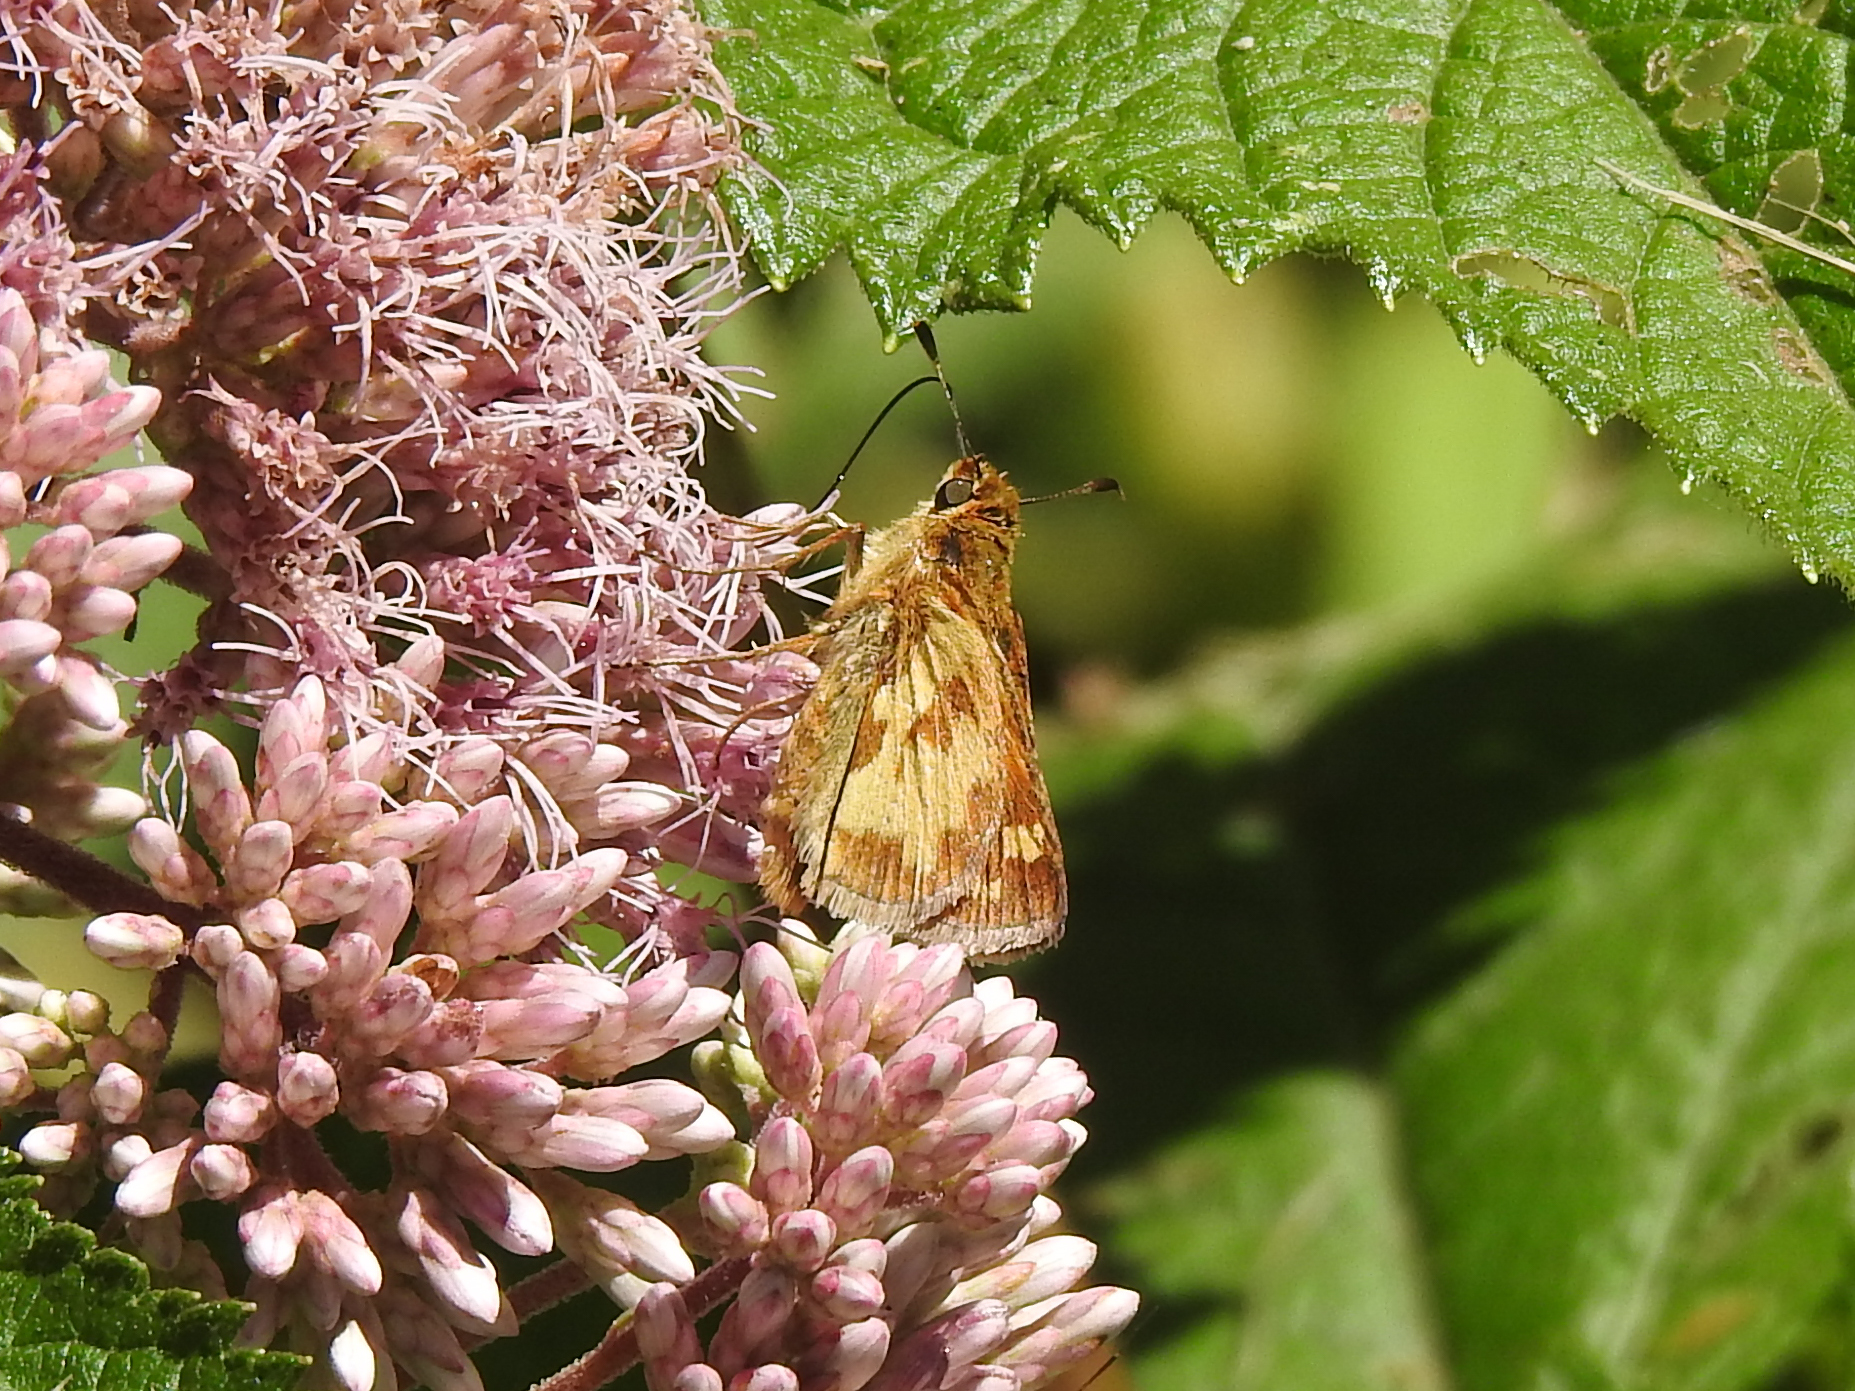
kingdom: Animalia
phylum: Arthropoda
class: Insecta
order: Lepidoptera
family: Hesperiidae
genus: Polites
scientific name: Polites coras
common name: Peck's skipper
